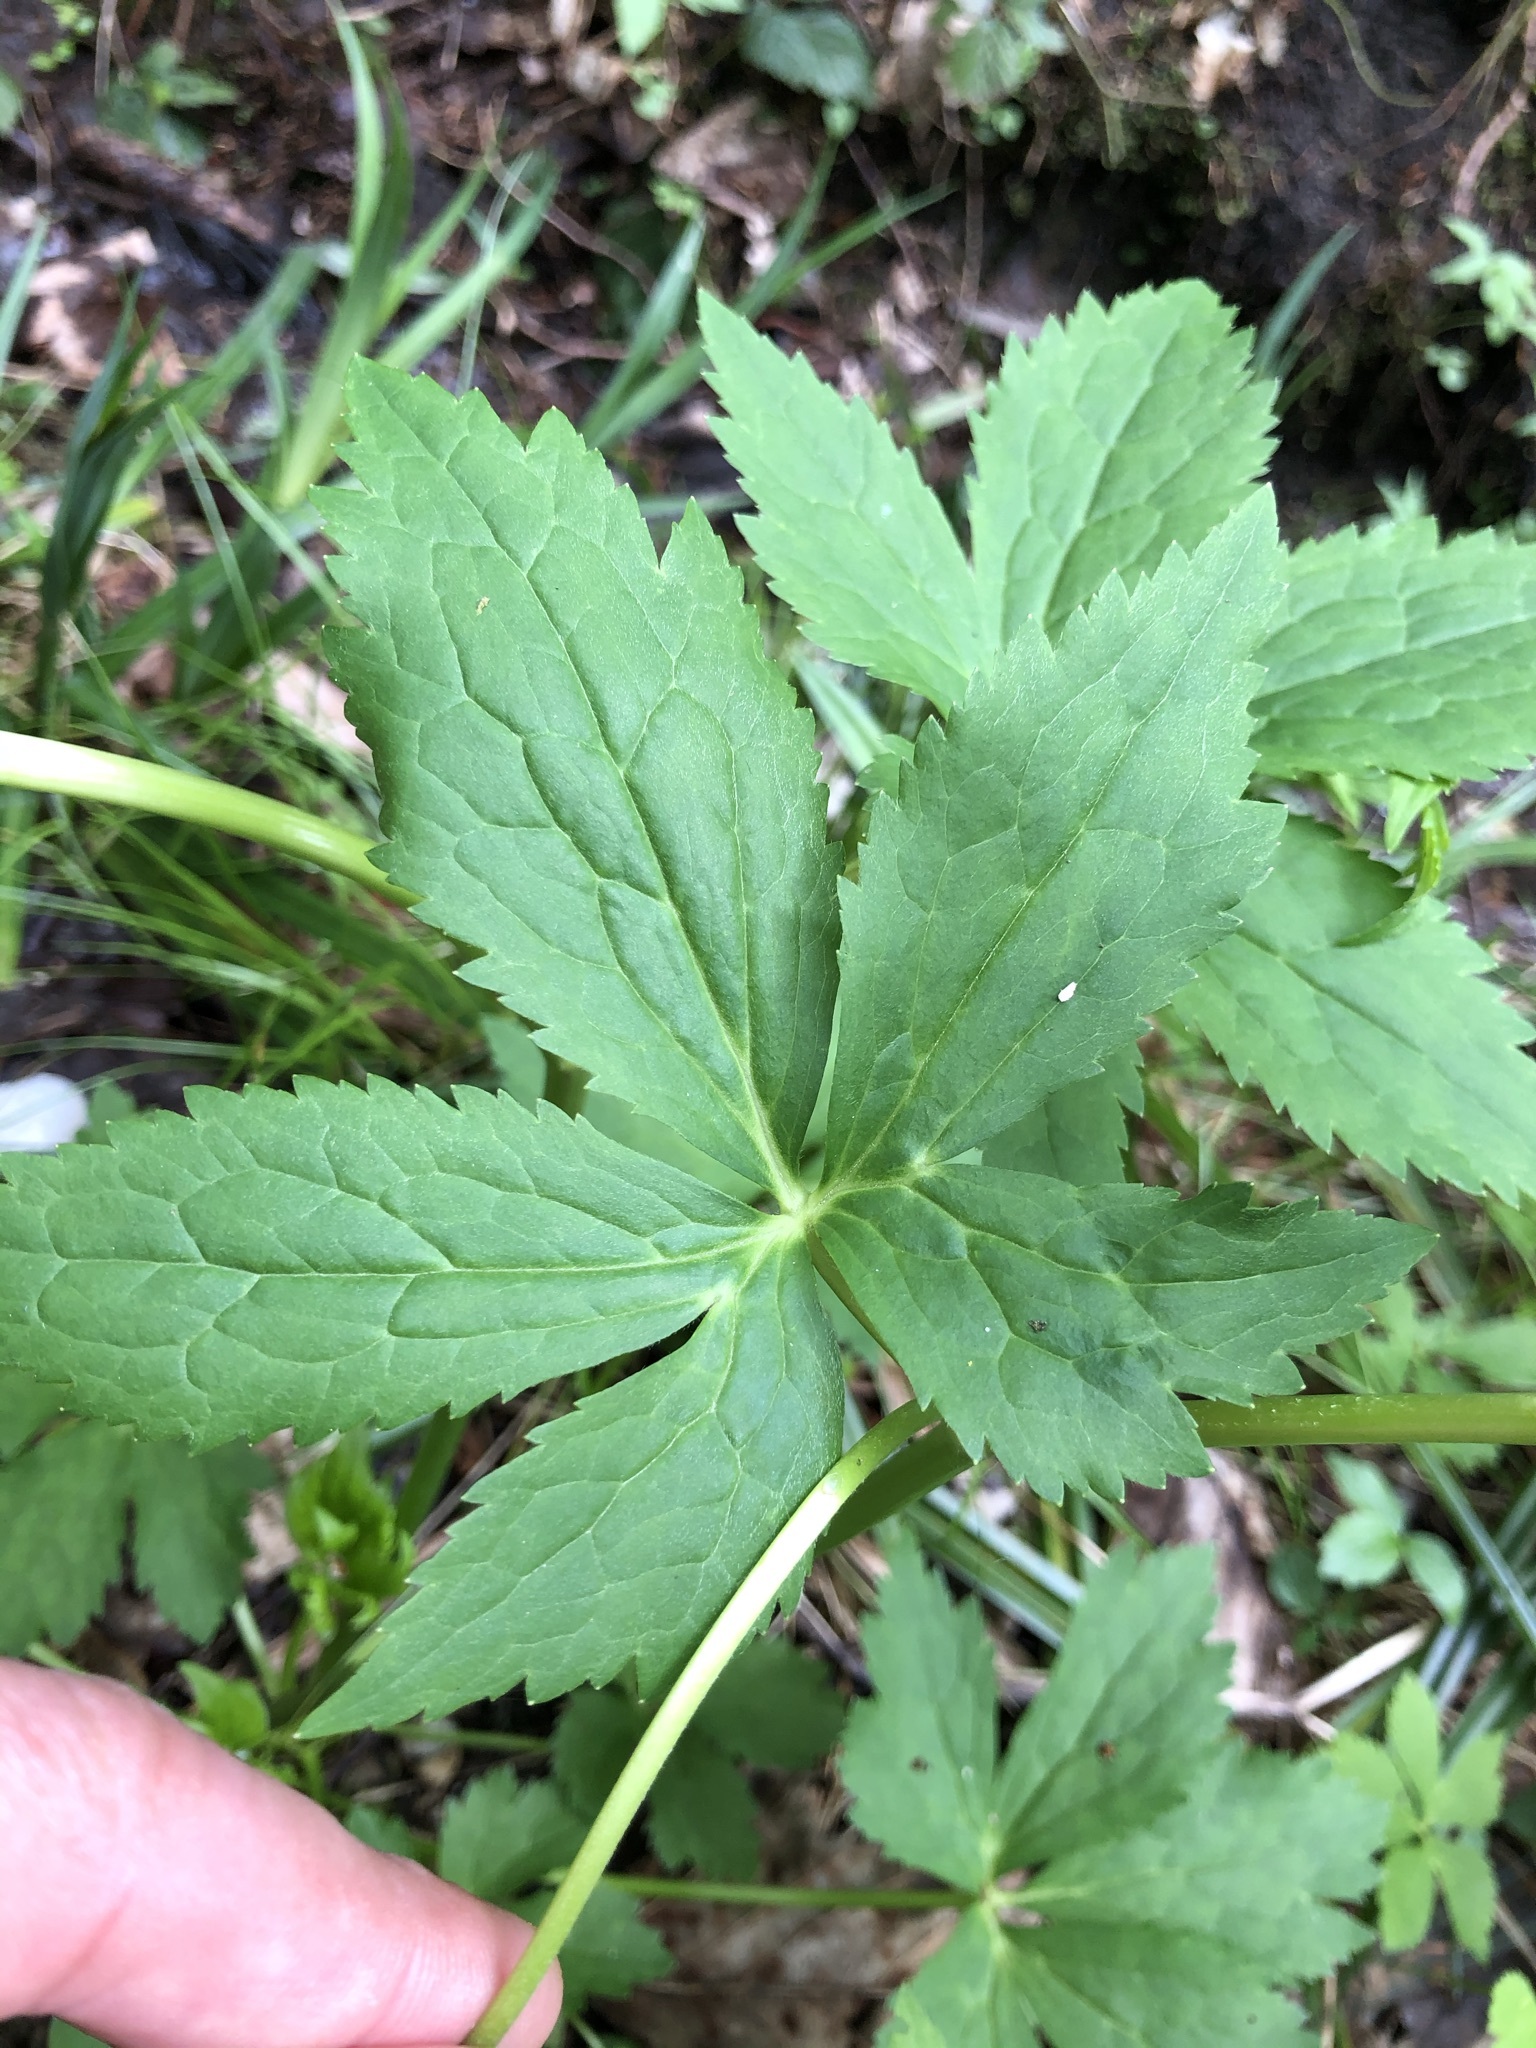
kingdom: Plantae
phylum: Tracheophyta
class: Magnoliopsida
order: Ranunculales
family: Ranunculaceae
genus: Ranunculus
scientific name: Ranunculus aconitifolius
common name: Aconite-leaved buttercup
